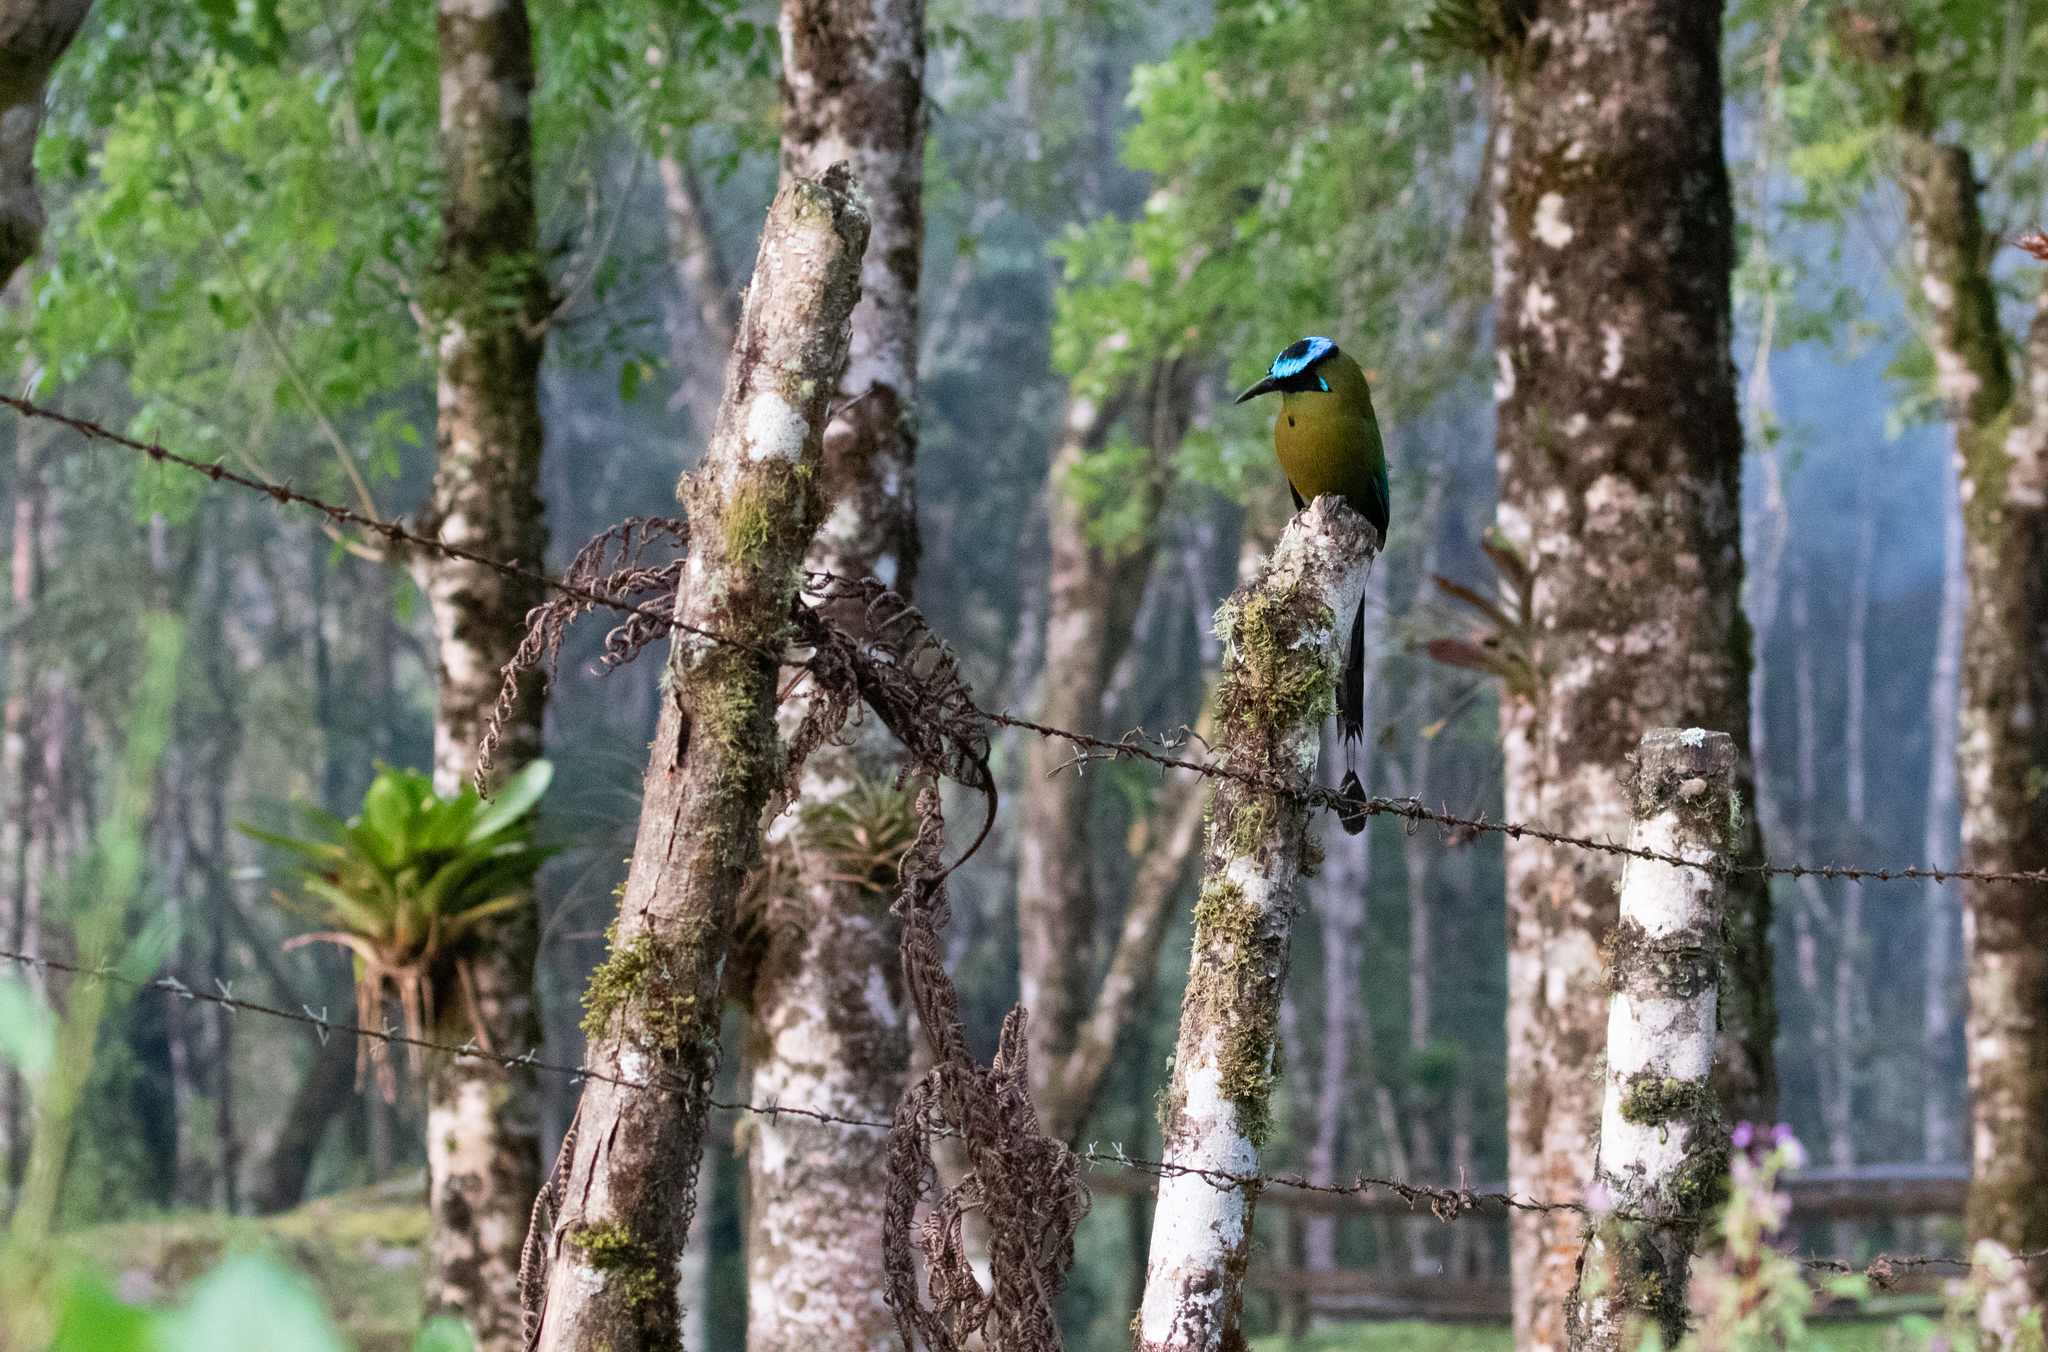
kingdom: Animalia
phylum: Chordata
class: Aves
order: Coraciiformes
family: Momotidae
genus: Momotus
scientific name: Momotus aequatorialis
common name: Andean motmot
